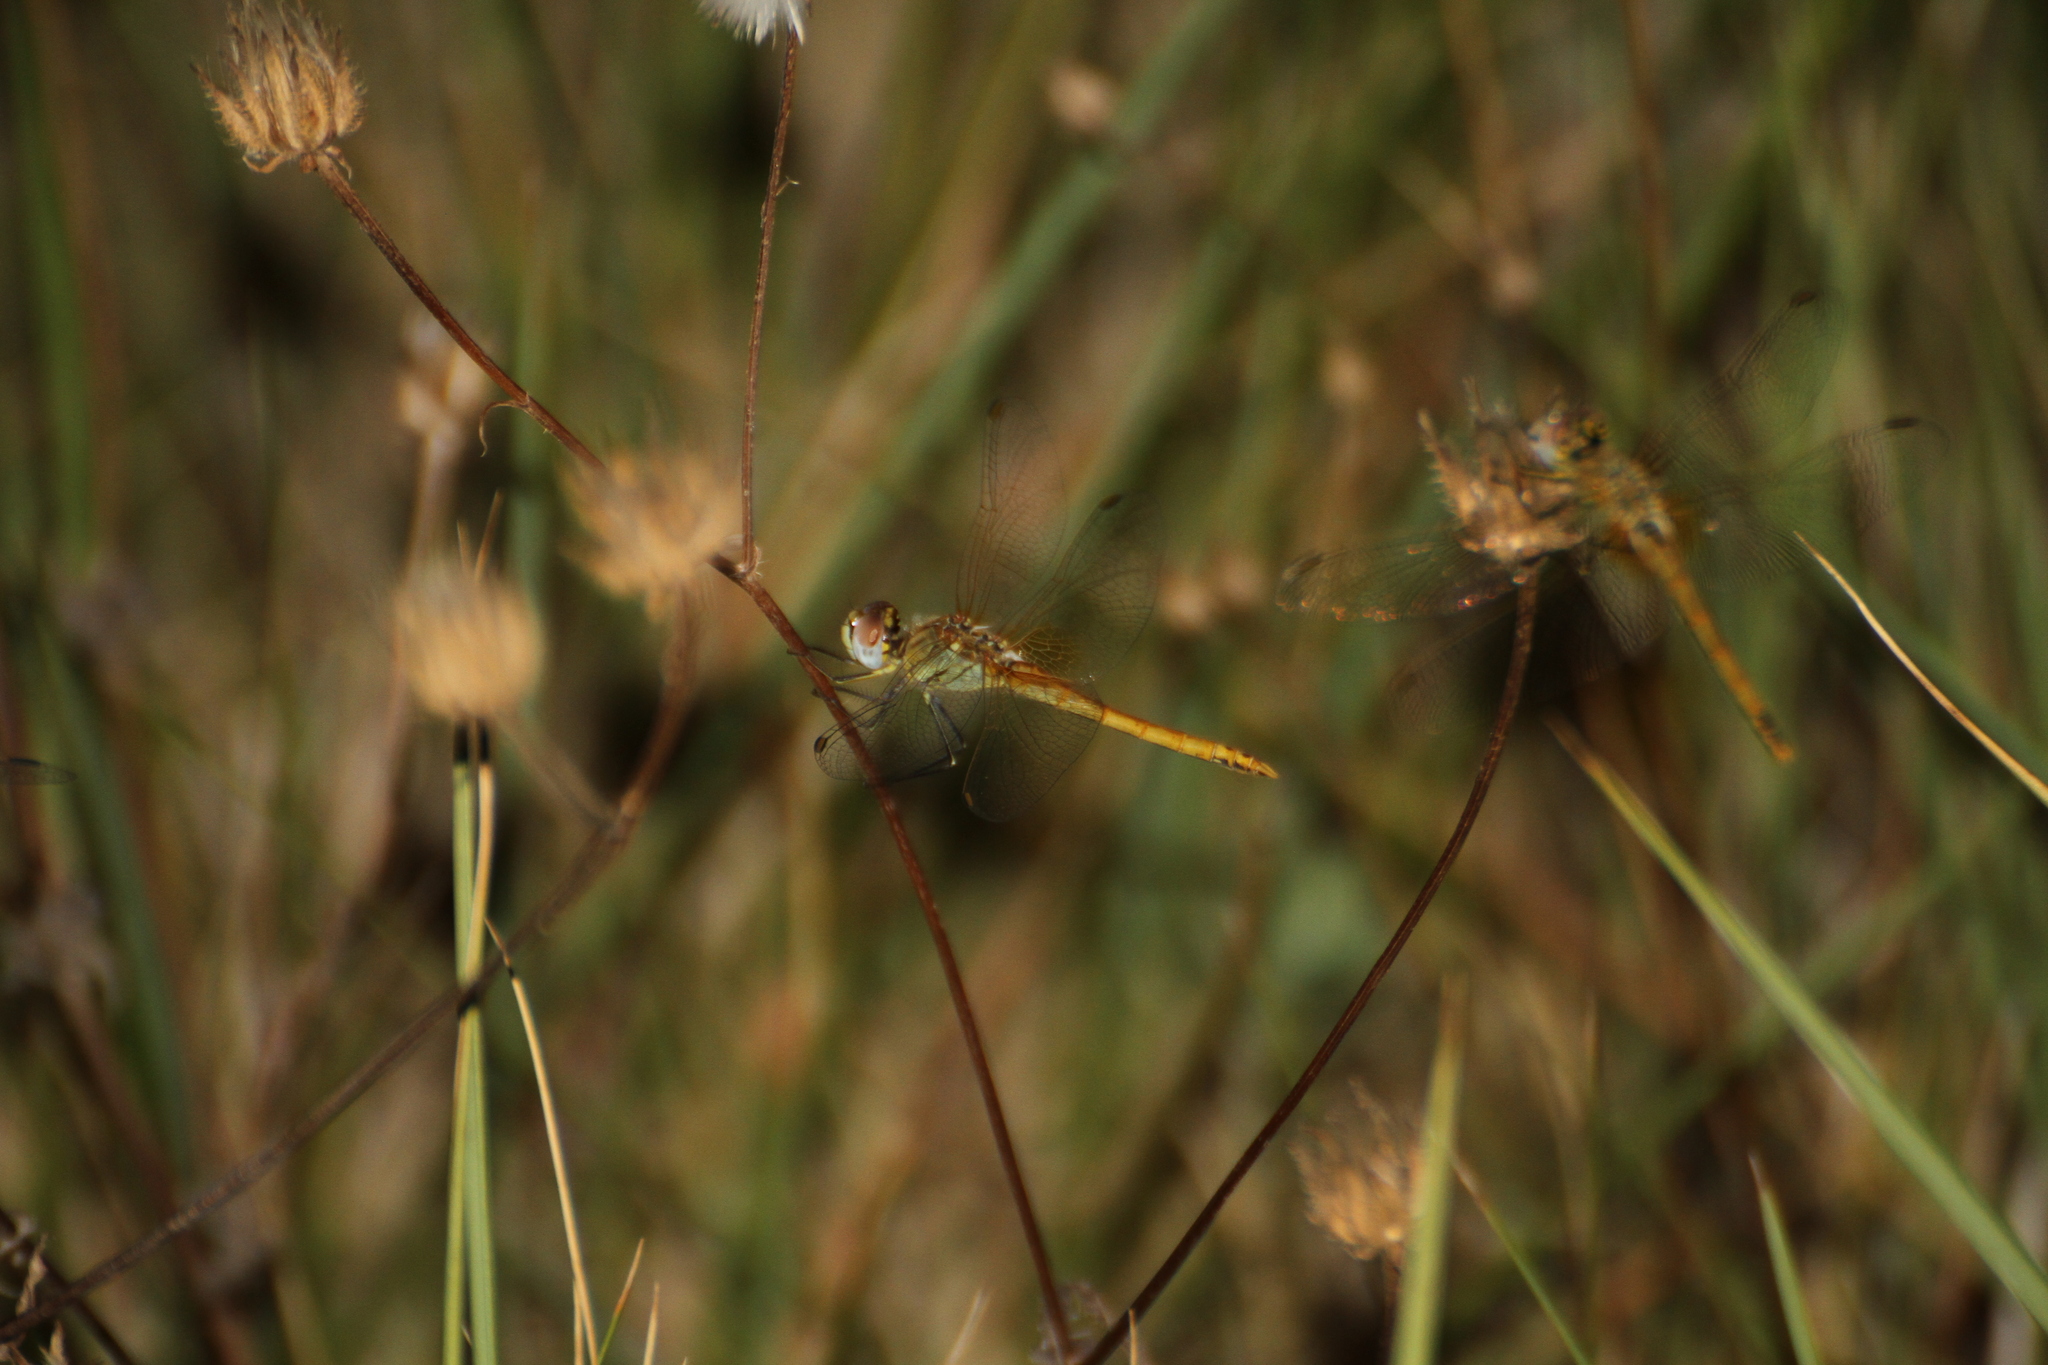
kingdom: Animalia
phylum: Arthropoda
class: Insecta
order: Odonata
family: Libellulidae
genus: Sympetrum
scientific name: Sympetrum fonscolombii
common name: Red-veined darter
